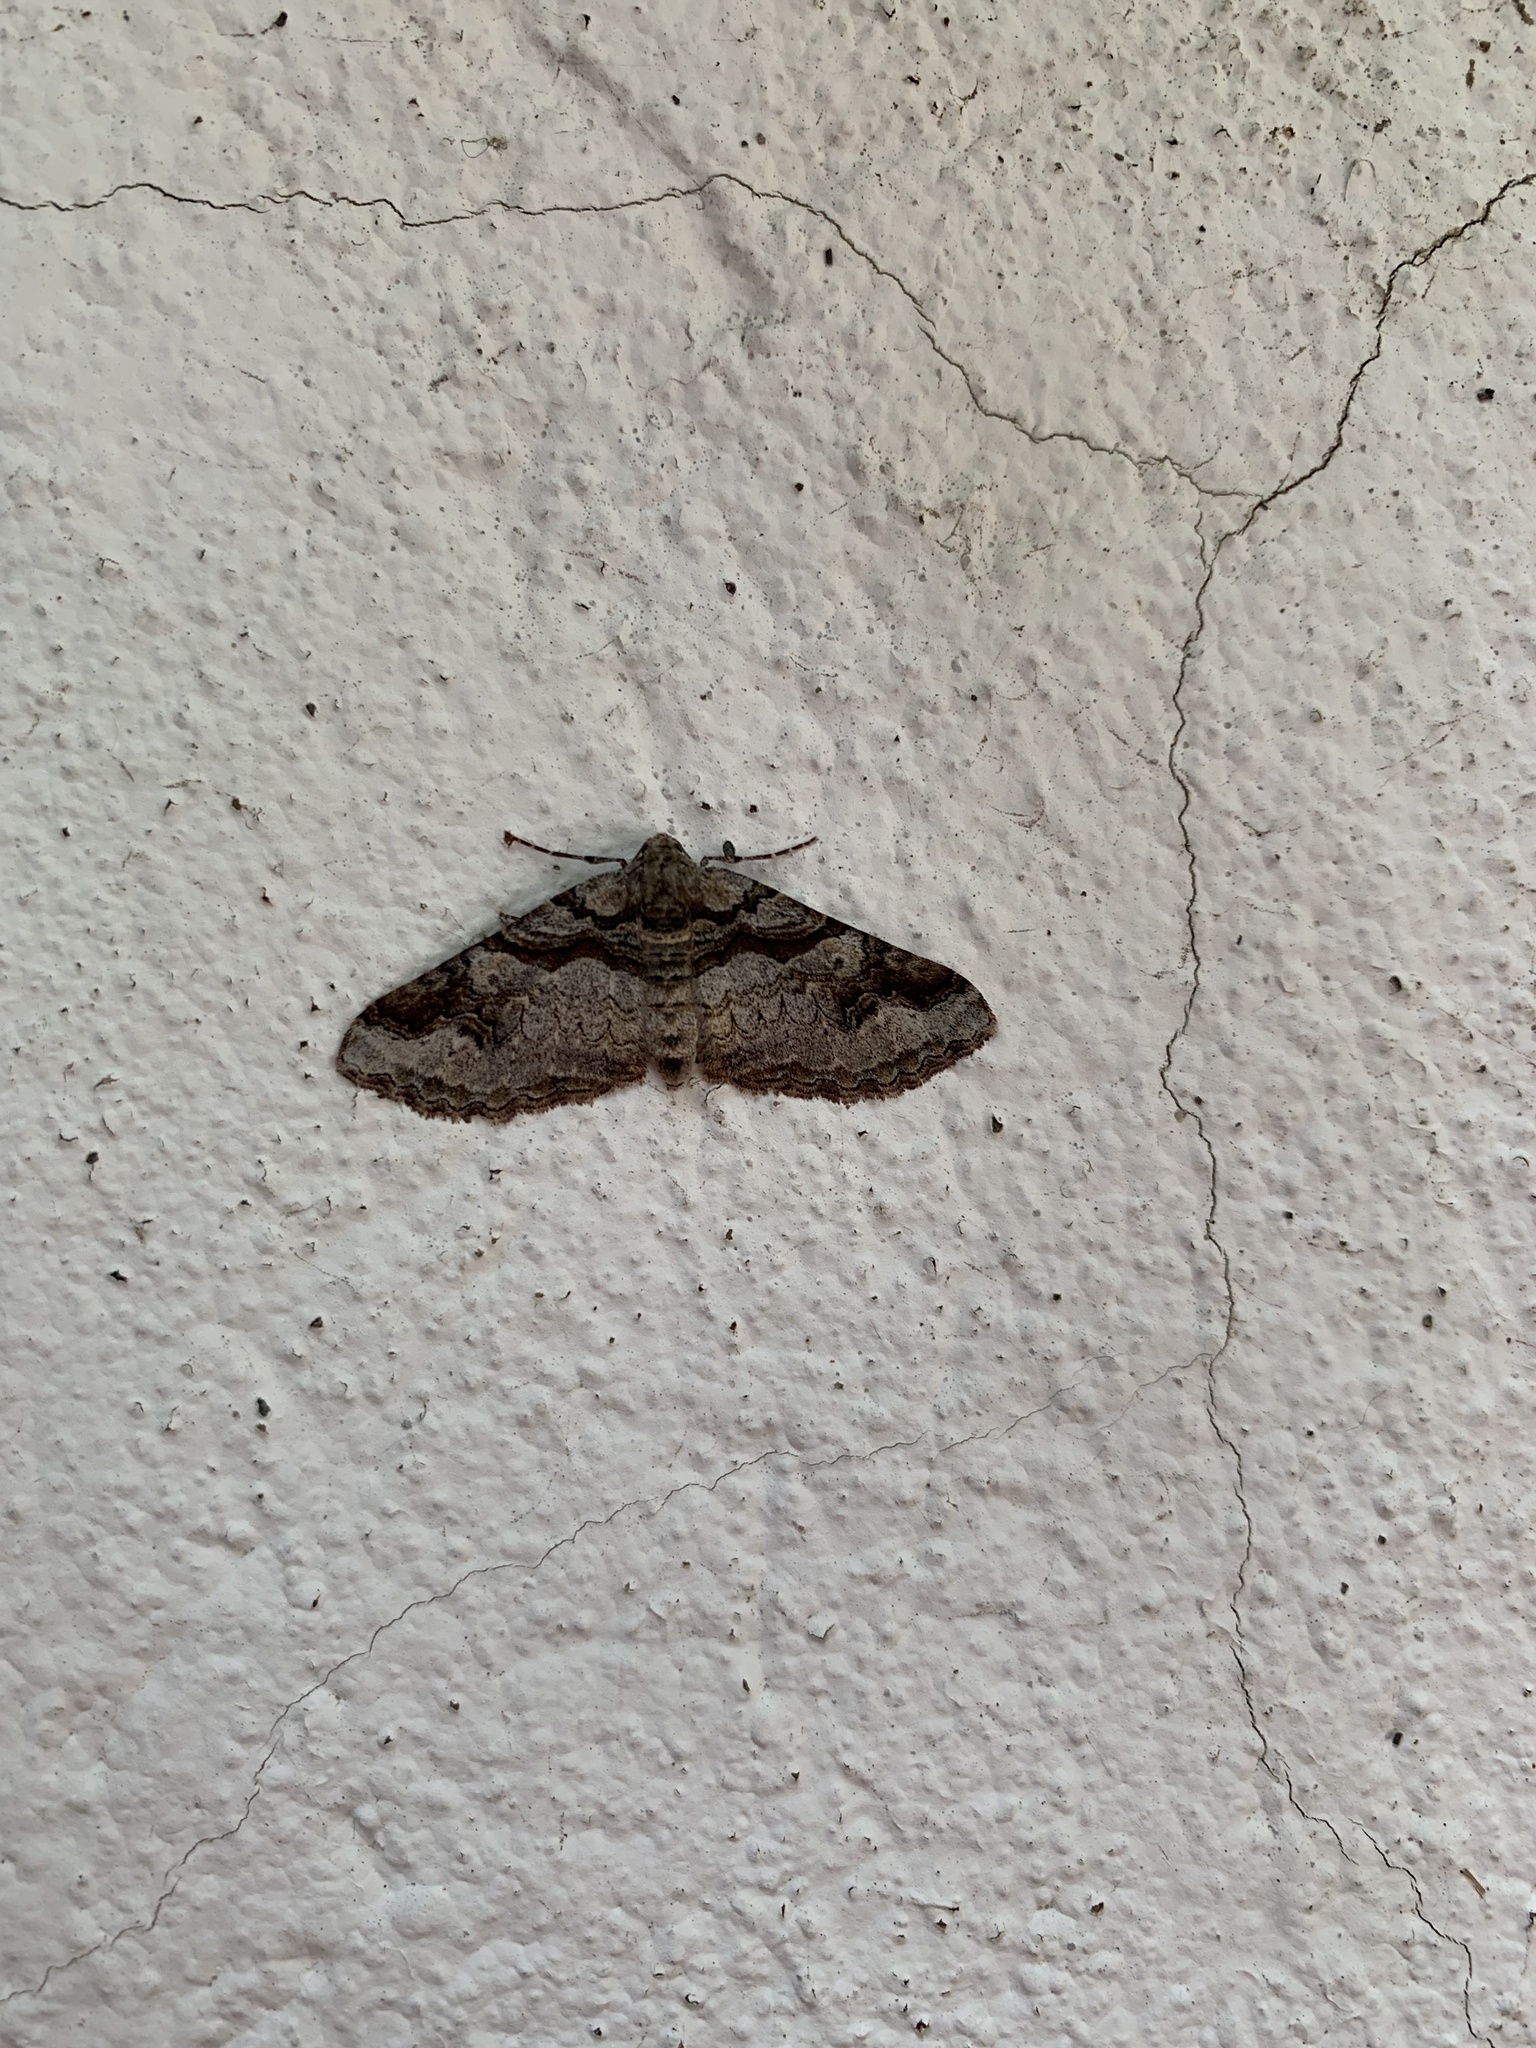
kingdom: Animalia
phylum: Arthropoda
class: Insecta
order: Lepidoptera
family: Geometridae
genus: Triptiloides
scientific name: Triptiloides fissa
